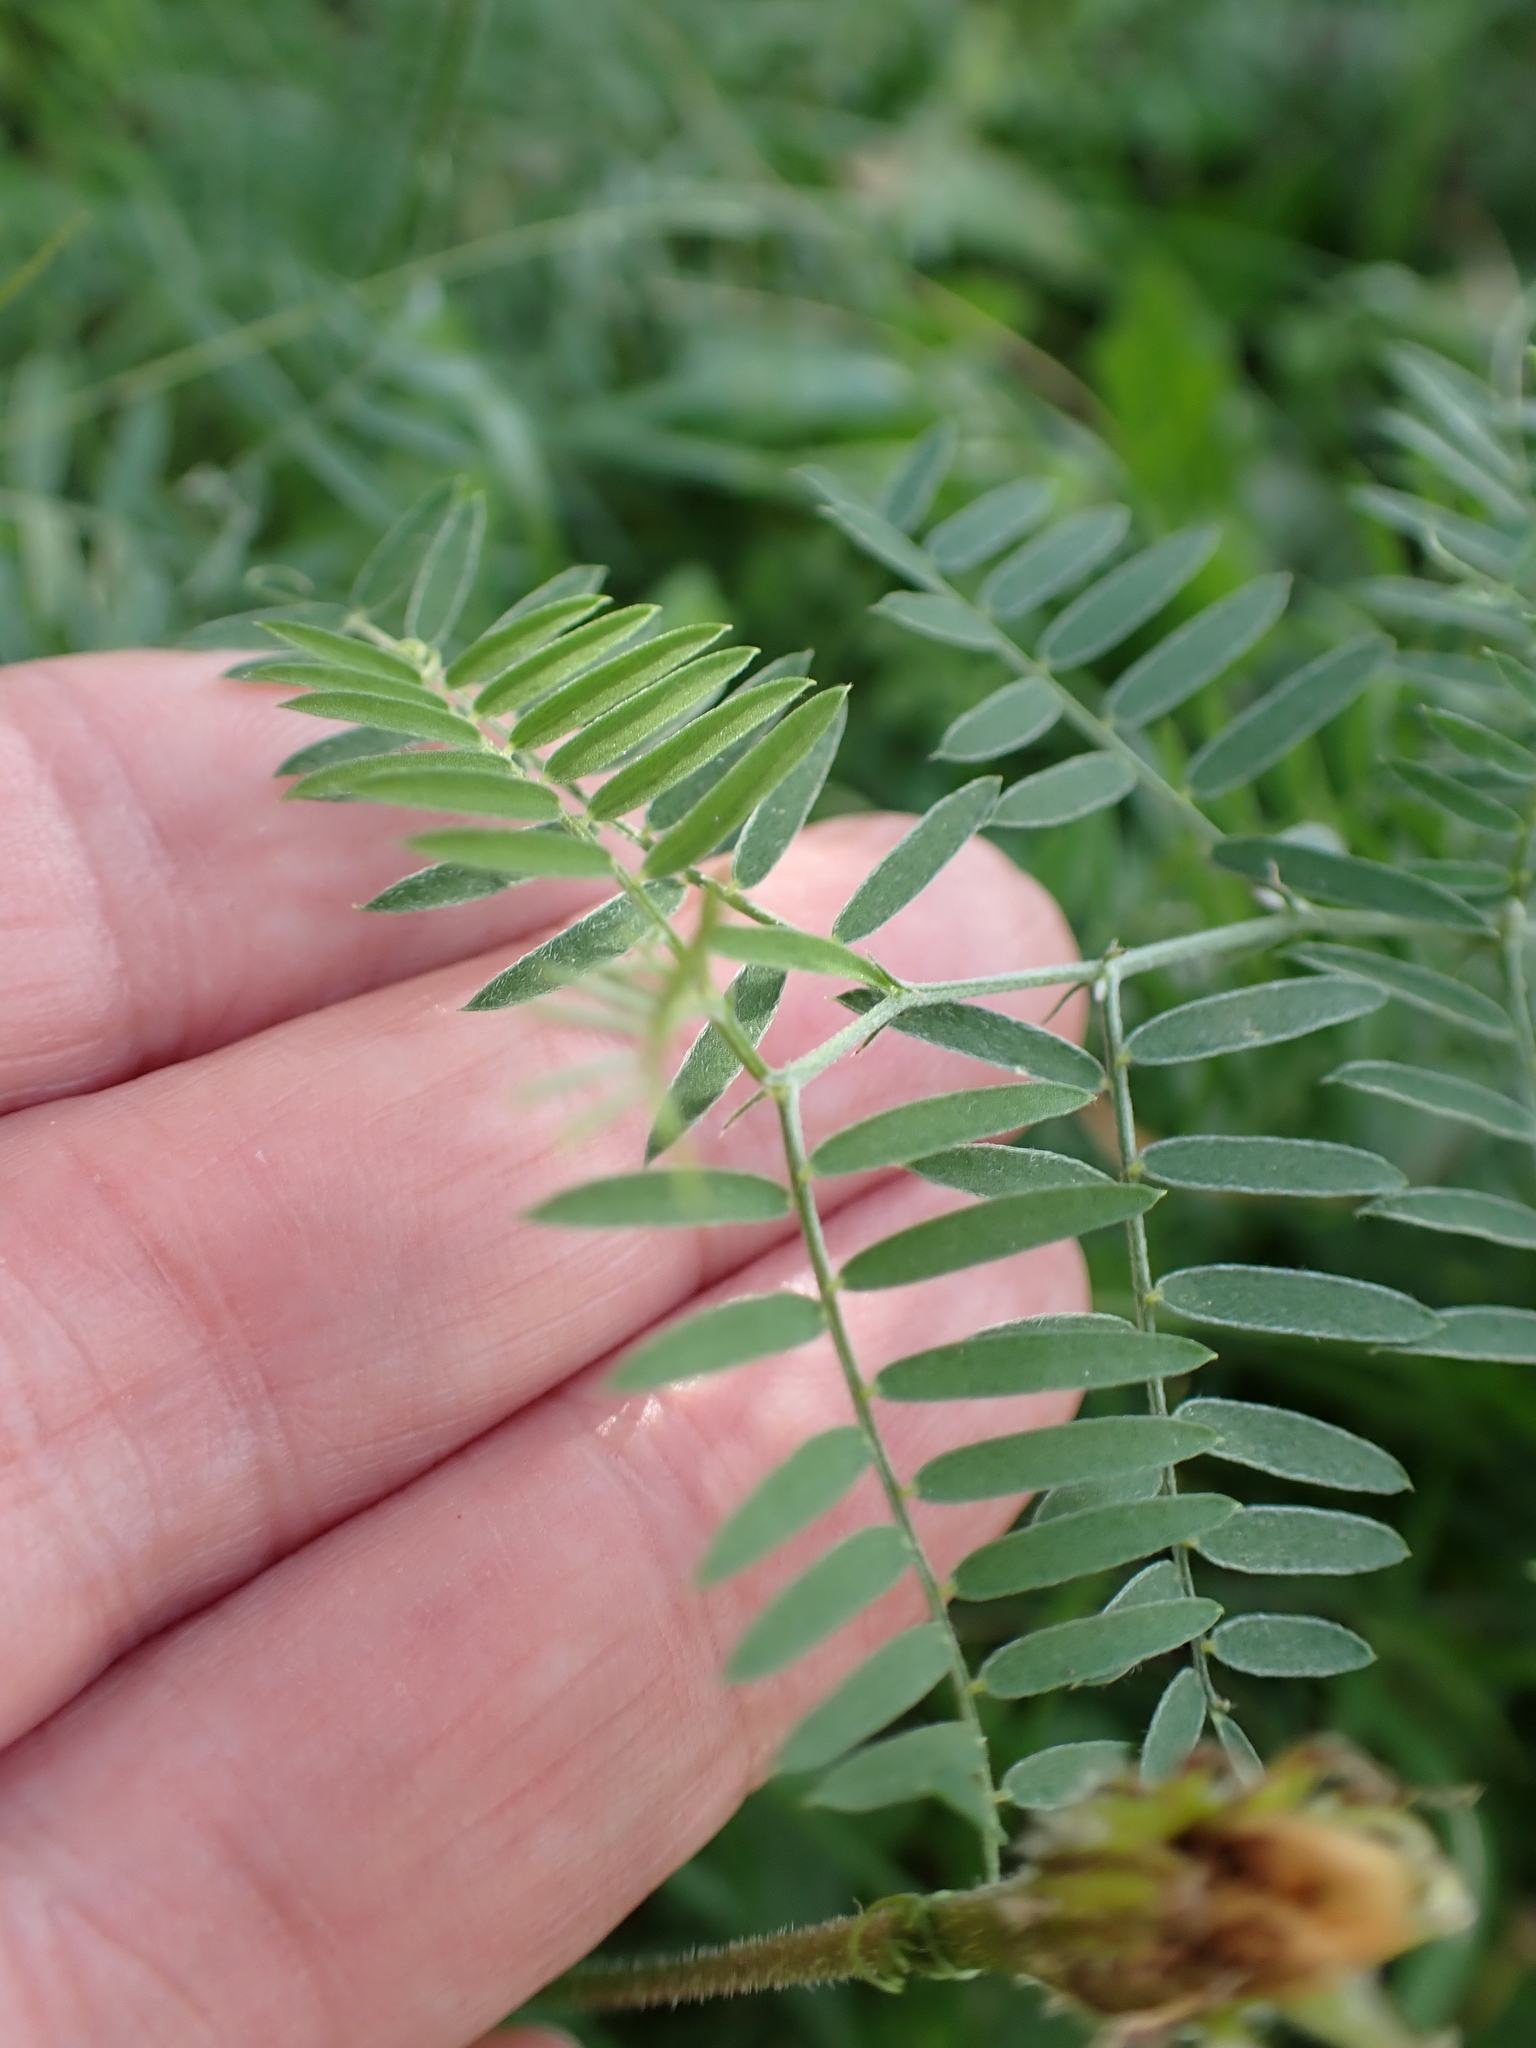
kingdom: Plantae
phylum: Tracheophyta
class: Magnoliopsida
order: Fabales
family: Fabaceae
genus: Vicia
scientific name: Vicia cracca
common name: Bird vetch
